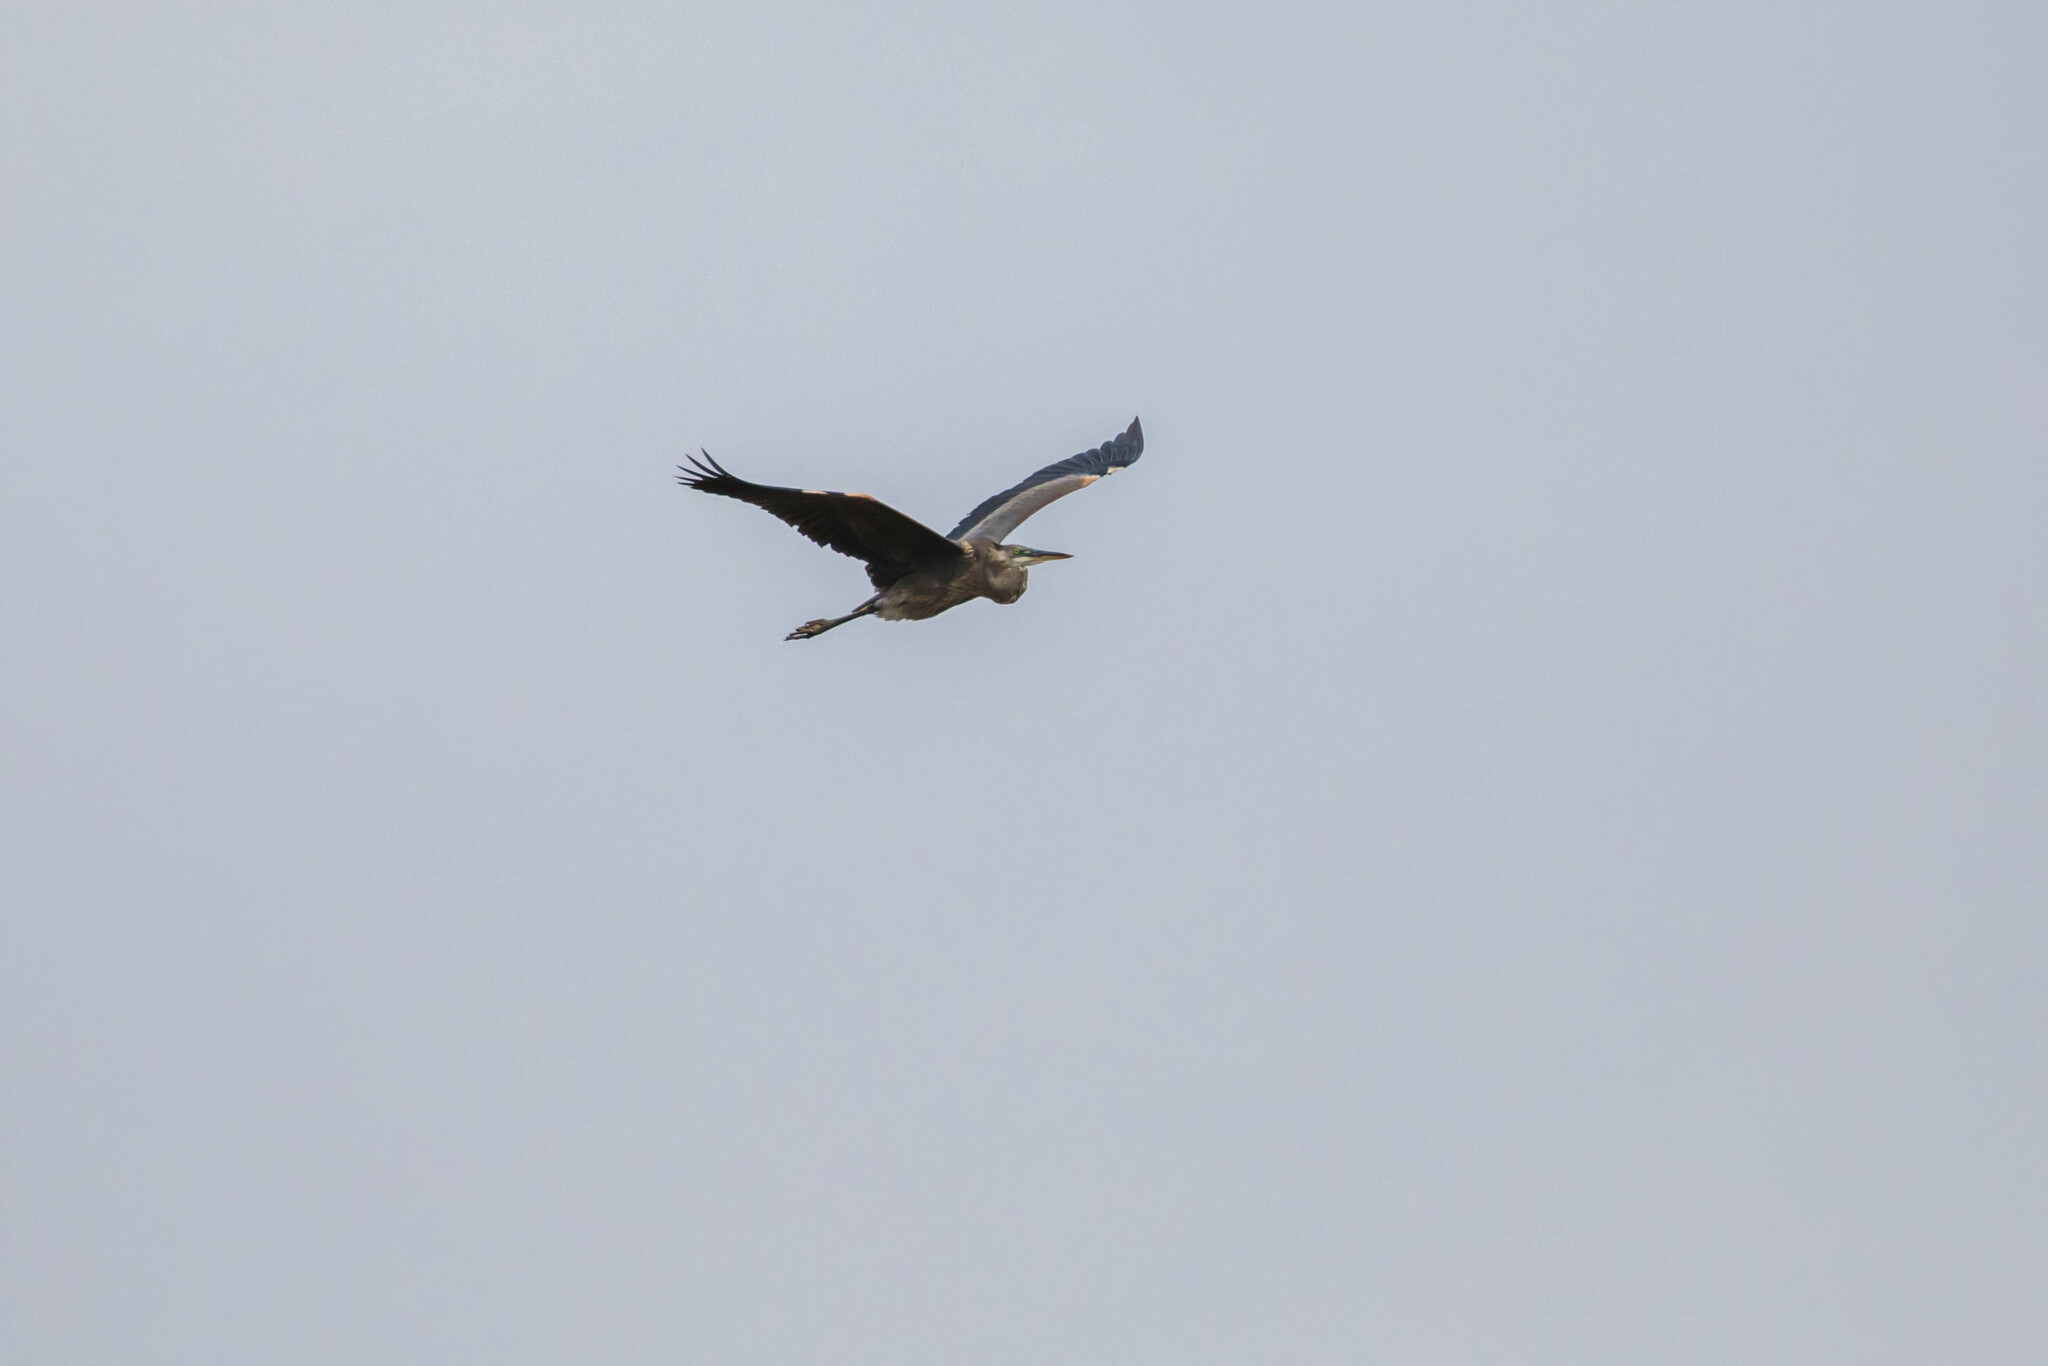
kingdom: Animalia
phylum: Chordata
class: Aves
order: Pelecaniformes
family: Ardeidae
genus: Ardea
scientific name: Ardea herodias
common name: Great blue heron
